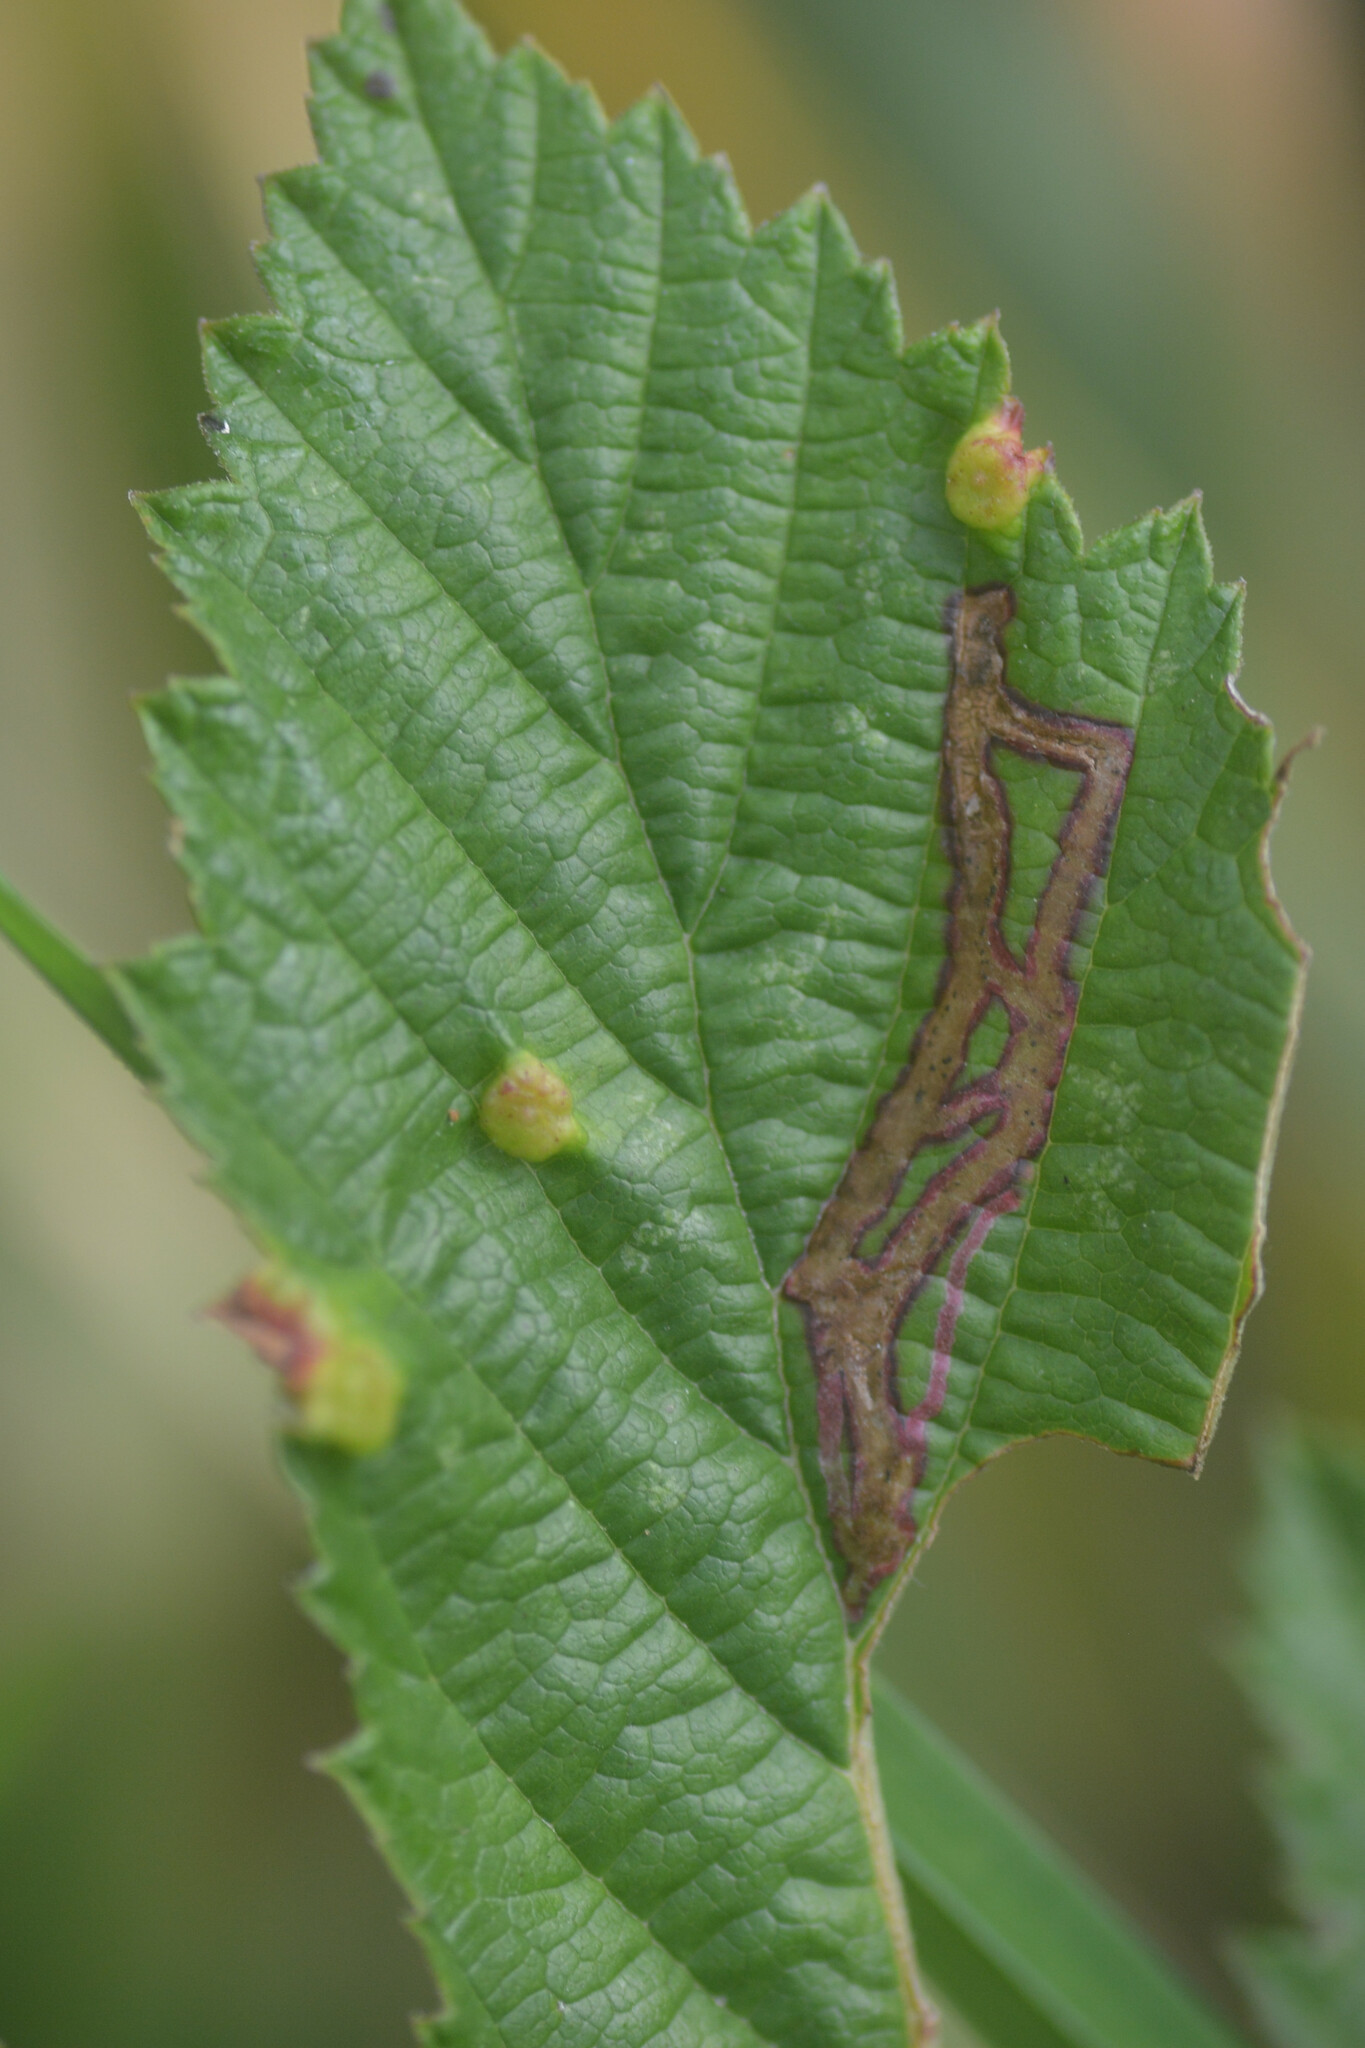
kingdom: Animalia
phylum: Arthropoda
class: Insecta
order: Diptera
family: Cecidomyiidae
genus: Dasineura
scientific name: Dasineura ulmaria
